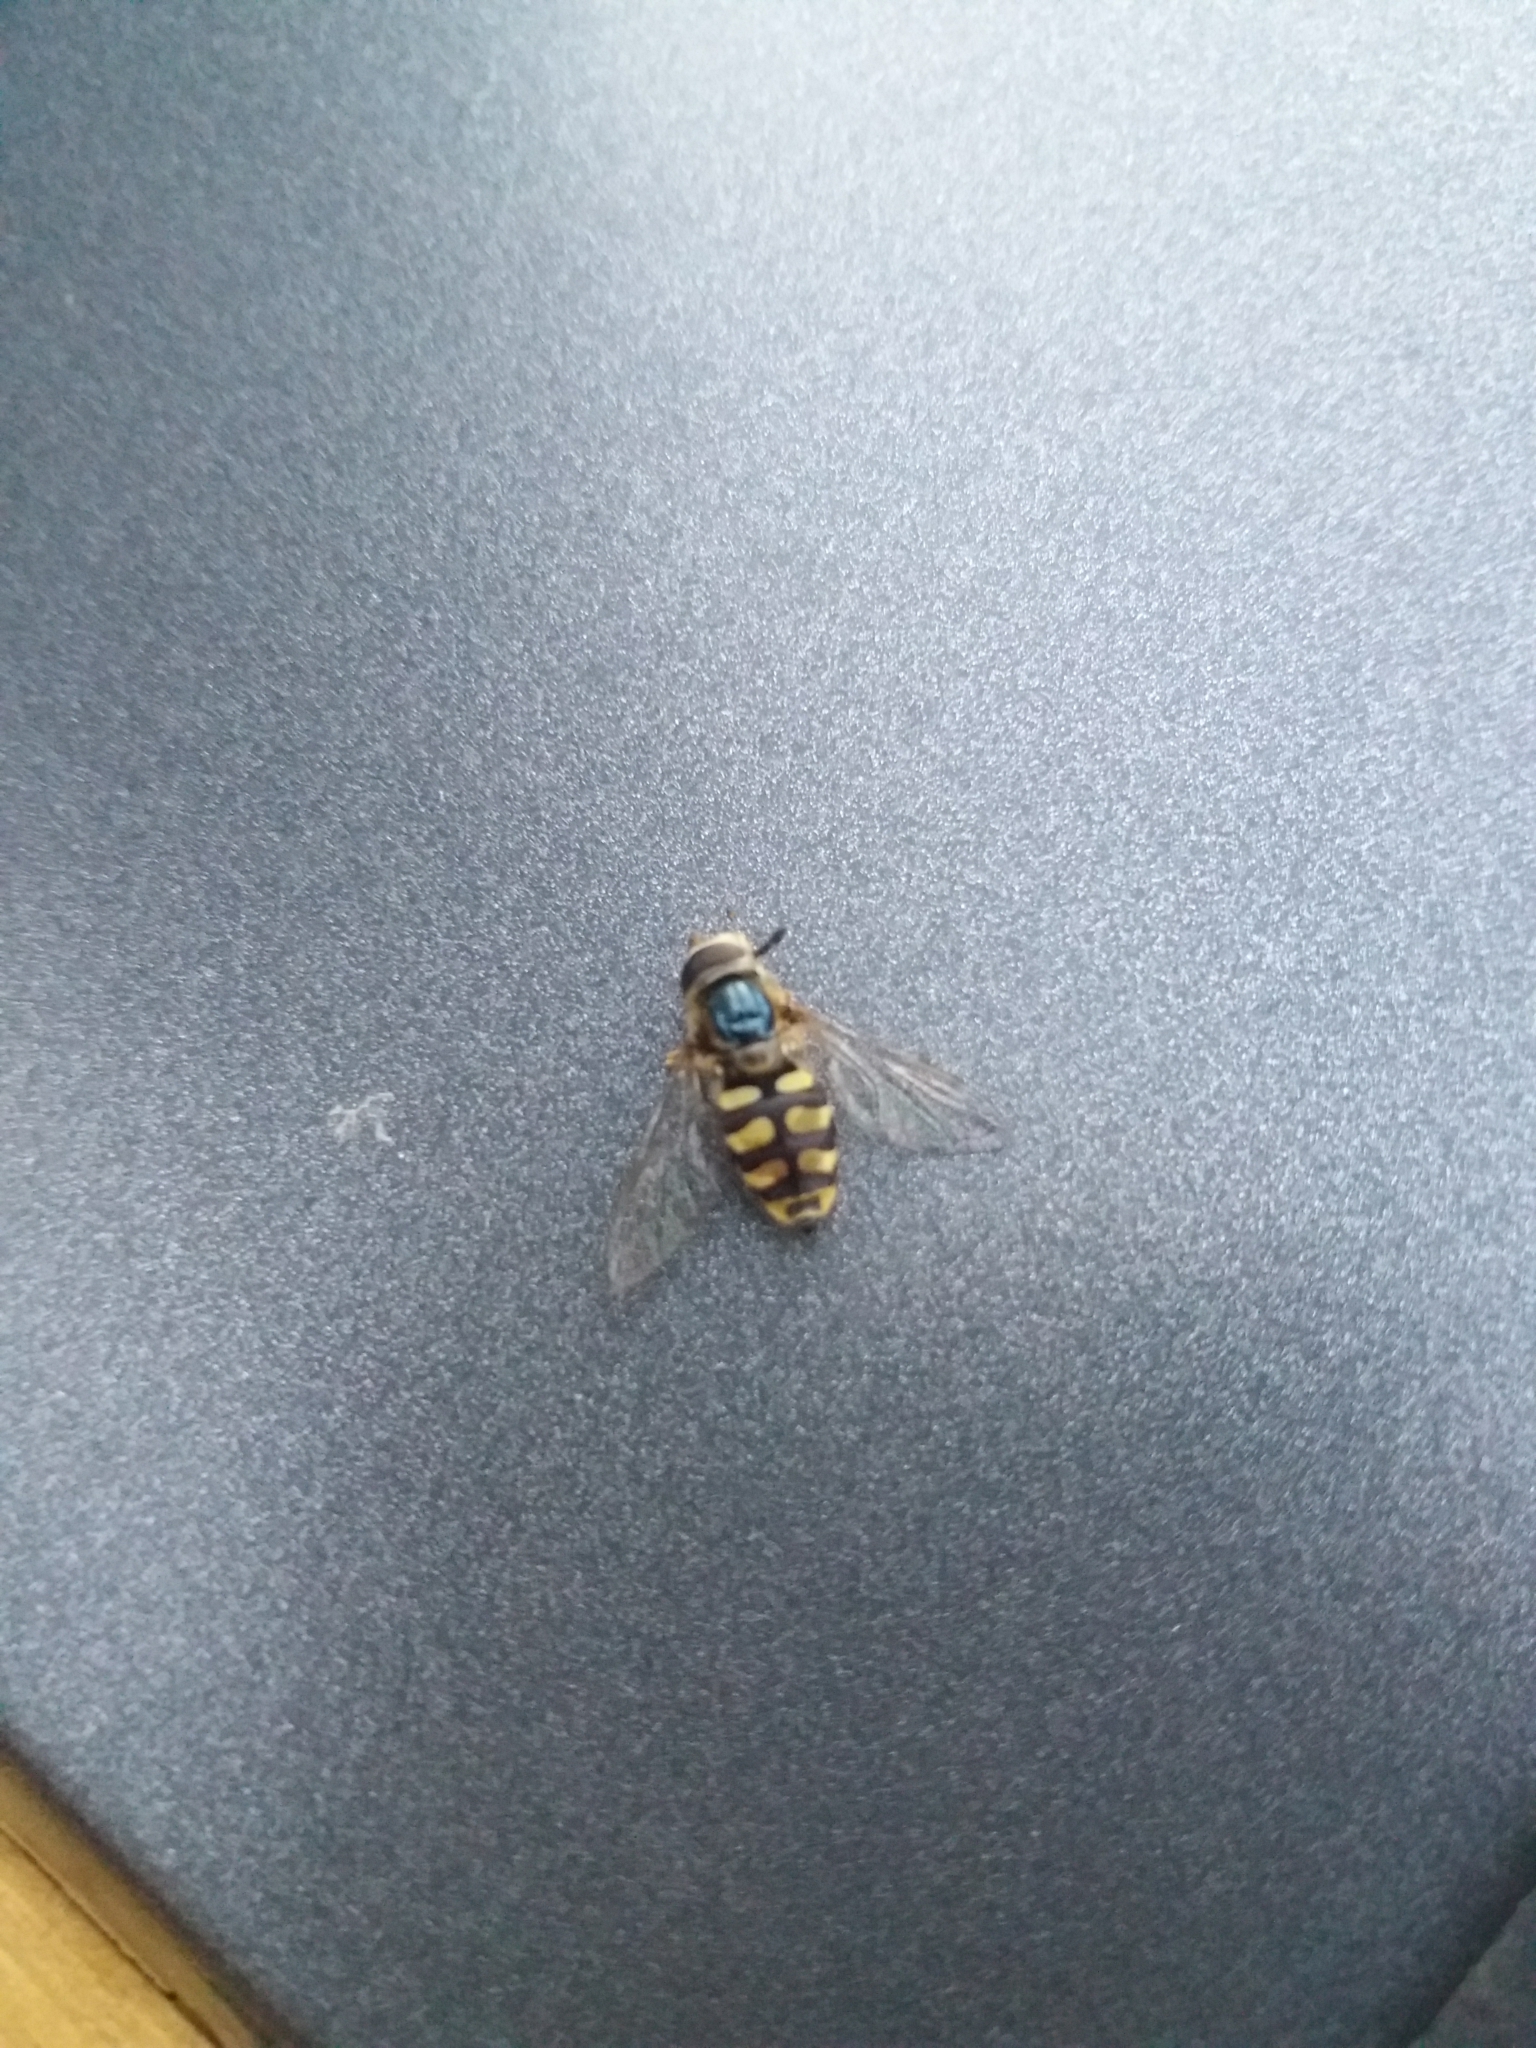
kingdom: Animalia
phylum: Arthropoda
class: Insecta
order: Diptera
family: Syrphidae
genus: Eupeodes
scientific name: Eupeodes corollae
